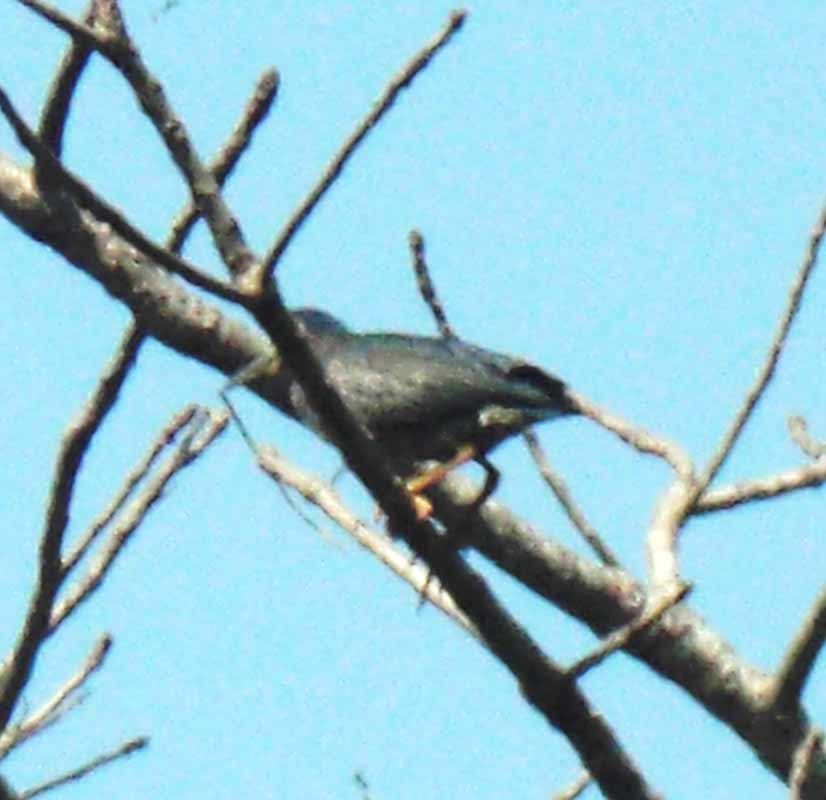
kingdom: Animalia
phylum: Chordata
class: Aves
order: Pelecaniformes
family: Ardeidae
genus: Butorides
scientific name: Butorides virescens
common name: Green heron
